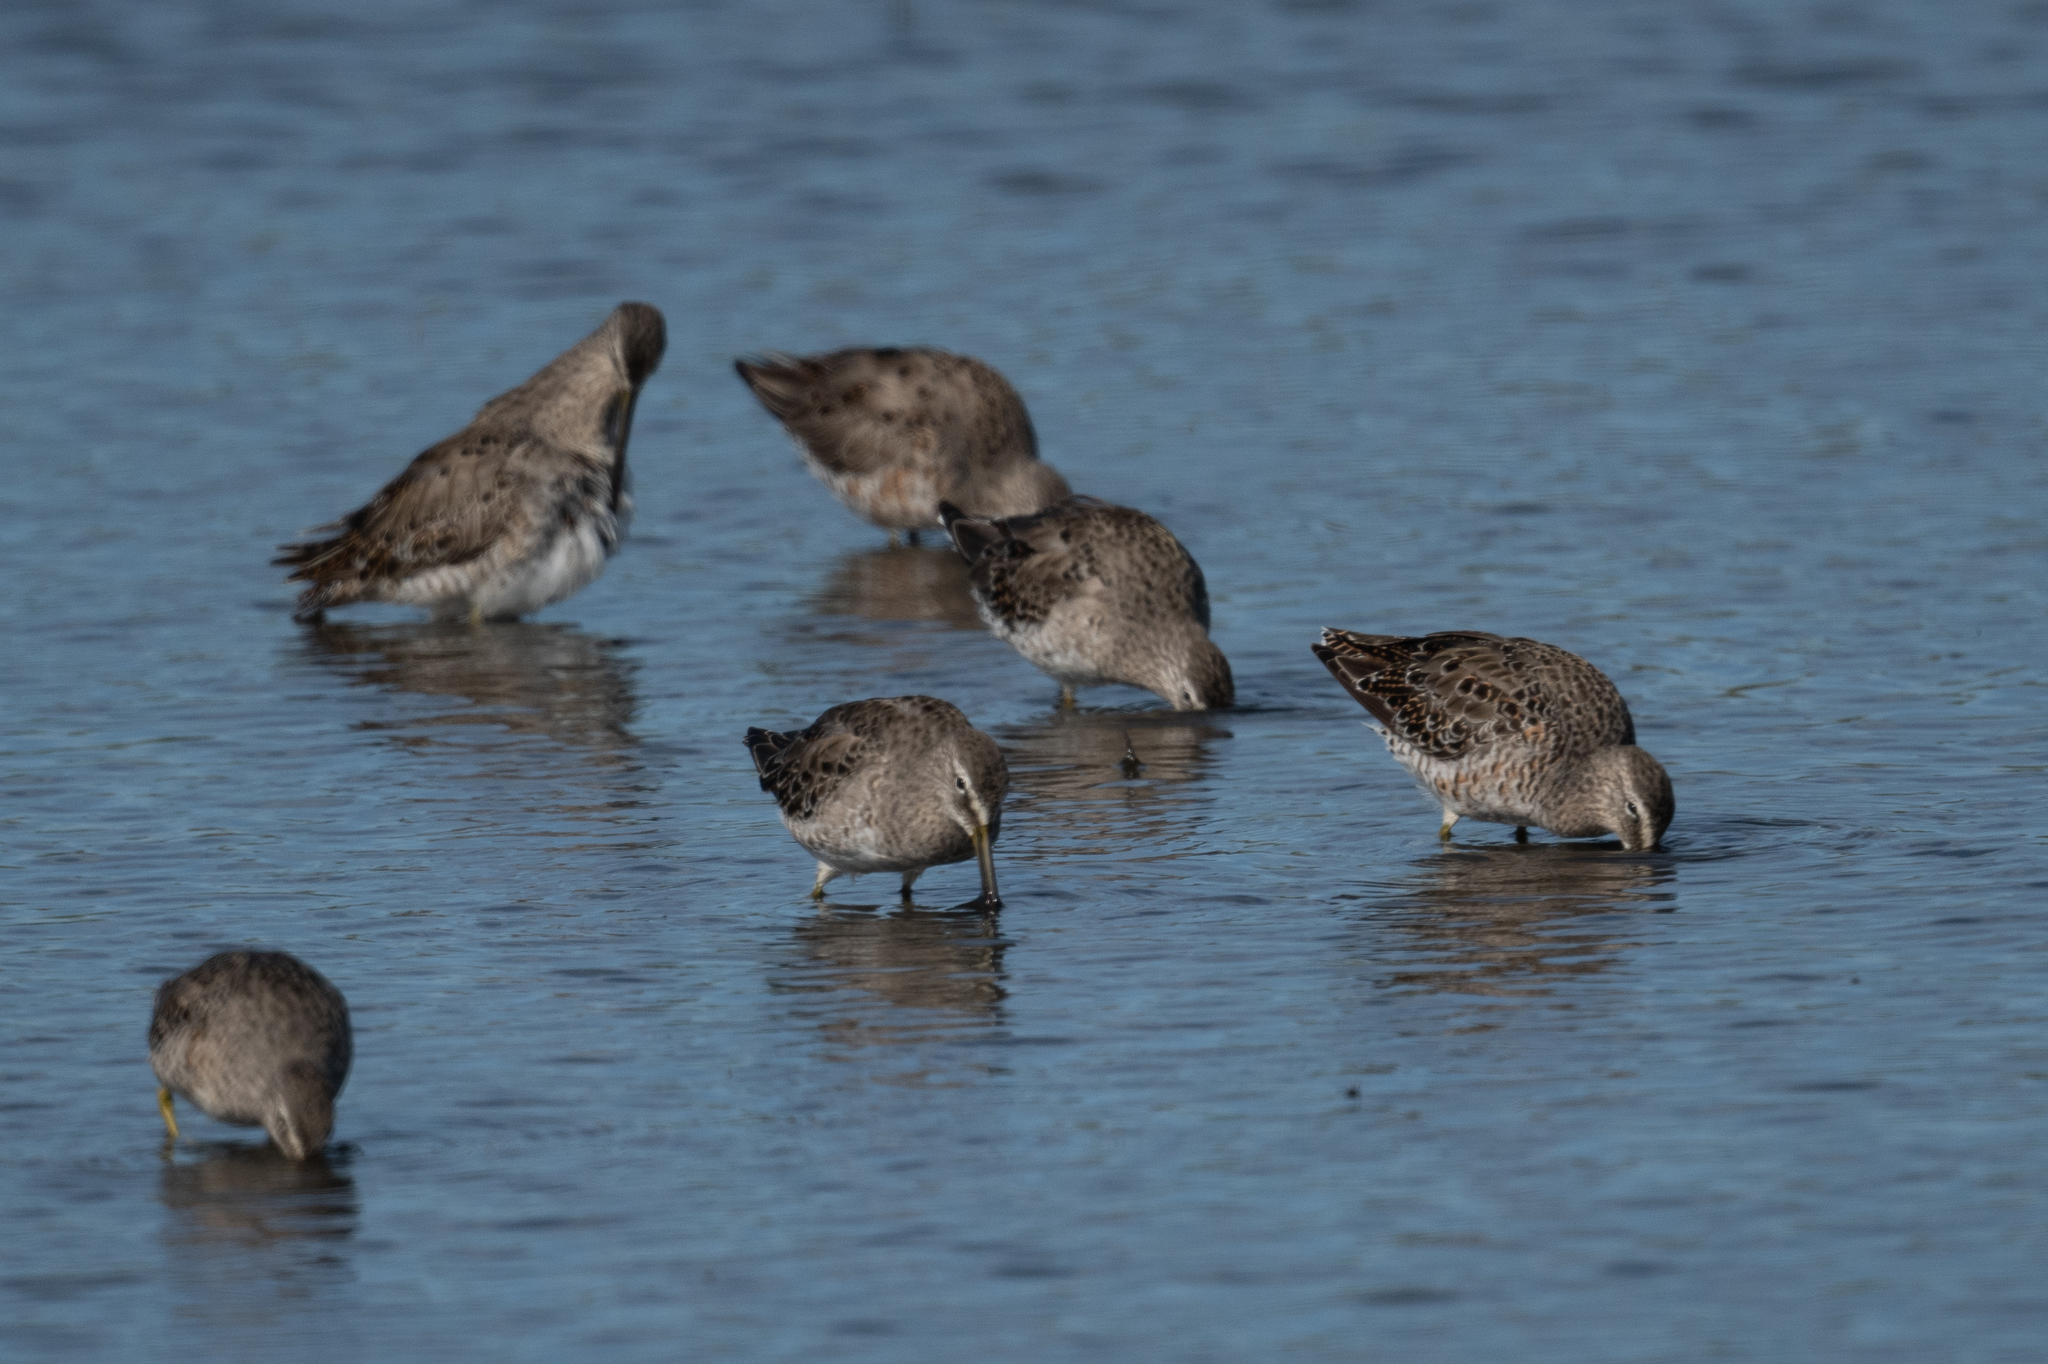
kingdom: Animalia
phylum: Chordata
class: Aves
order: Charadriiformes
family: Scolopacidae
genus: Limnodromus
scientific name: Limnodromus scolopaceus
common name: Long-billed dowitcher
